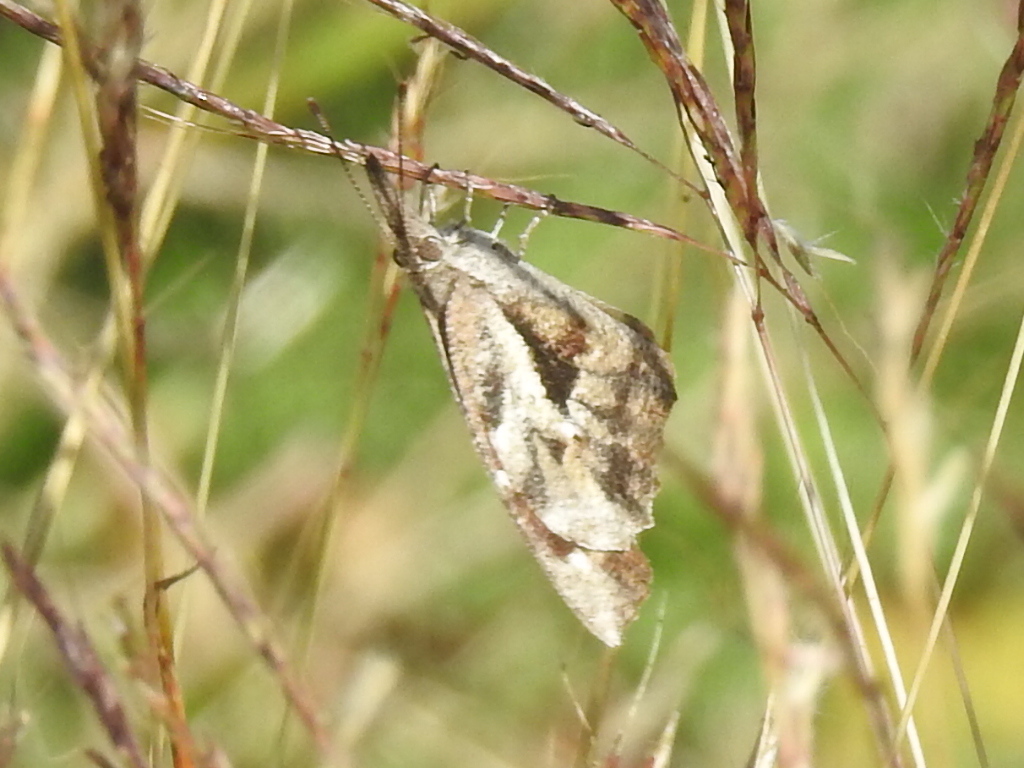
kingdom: Animalia
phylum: Arthropoda
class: Insecta
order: Lepidoptera
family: Nymphalidae
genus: Libytheana
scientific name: Libytheana carinenta
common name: American snout
